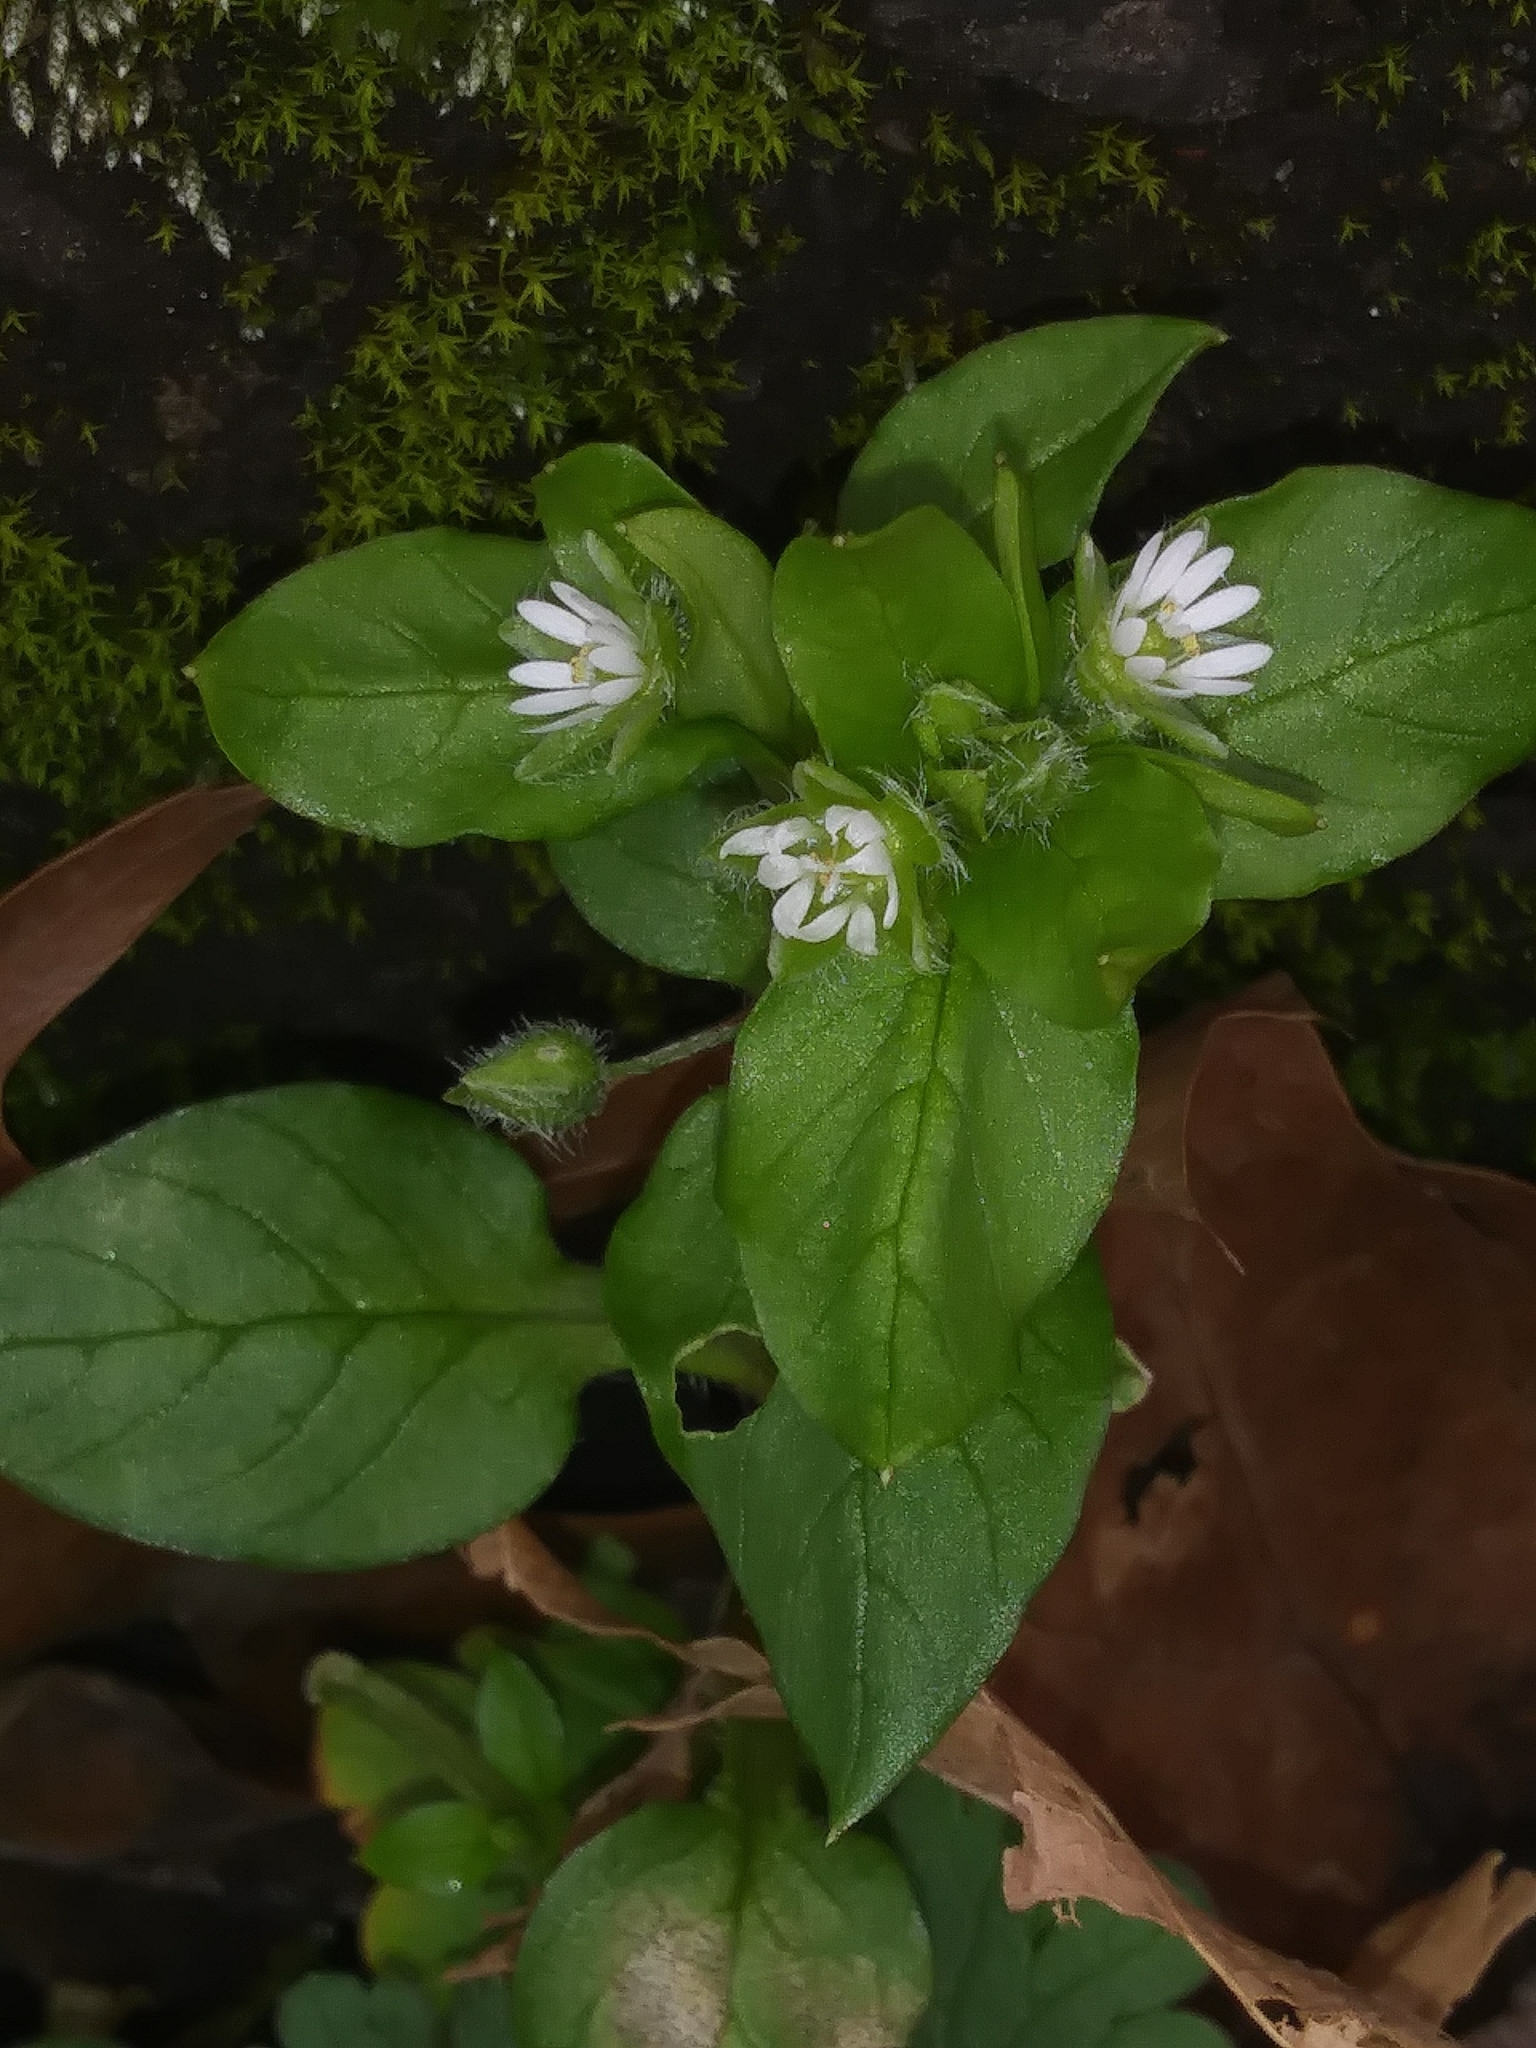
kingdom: Plantae
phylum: Tracheophyta
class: Magnoliopsida
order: Caryophyllales
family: Caryophyllaceae
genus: Stellaria
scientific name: Stellaria media
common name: Common chickweed
